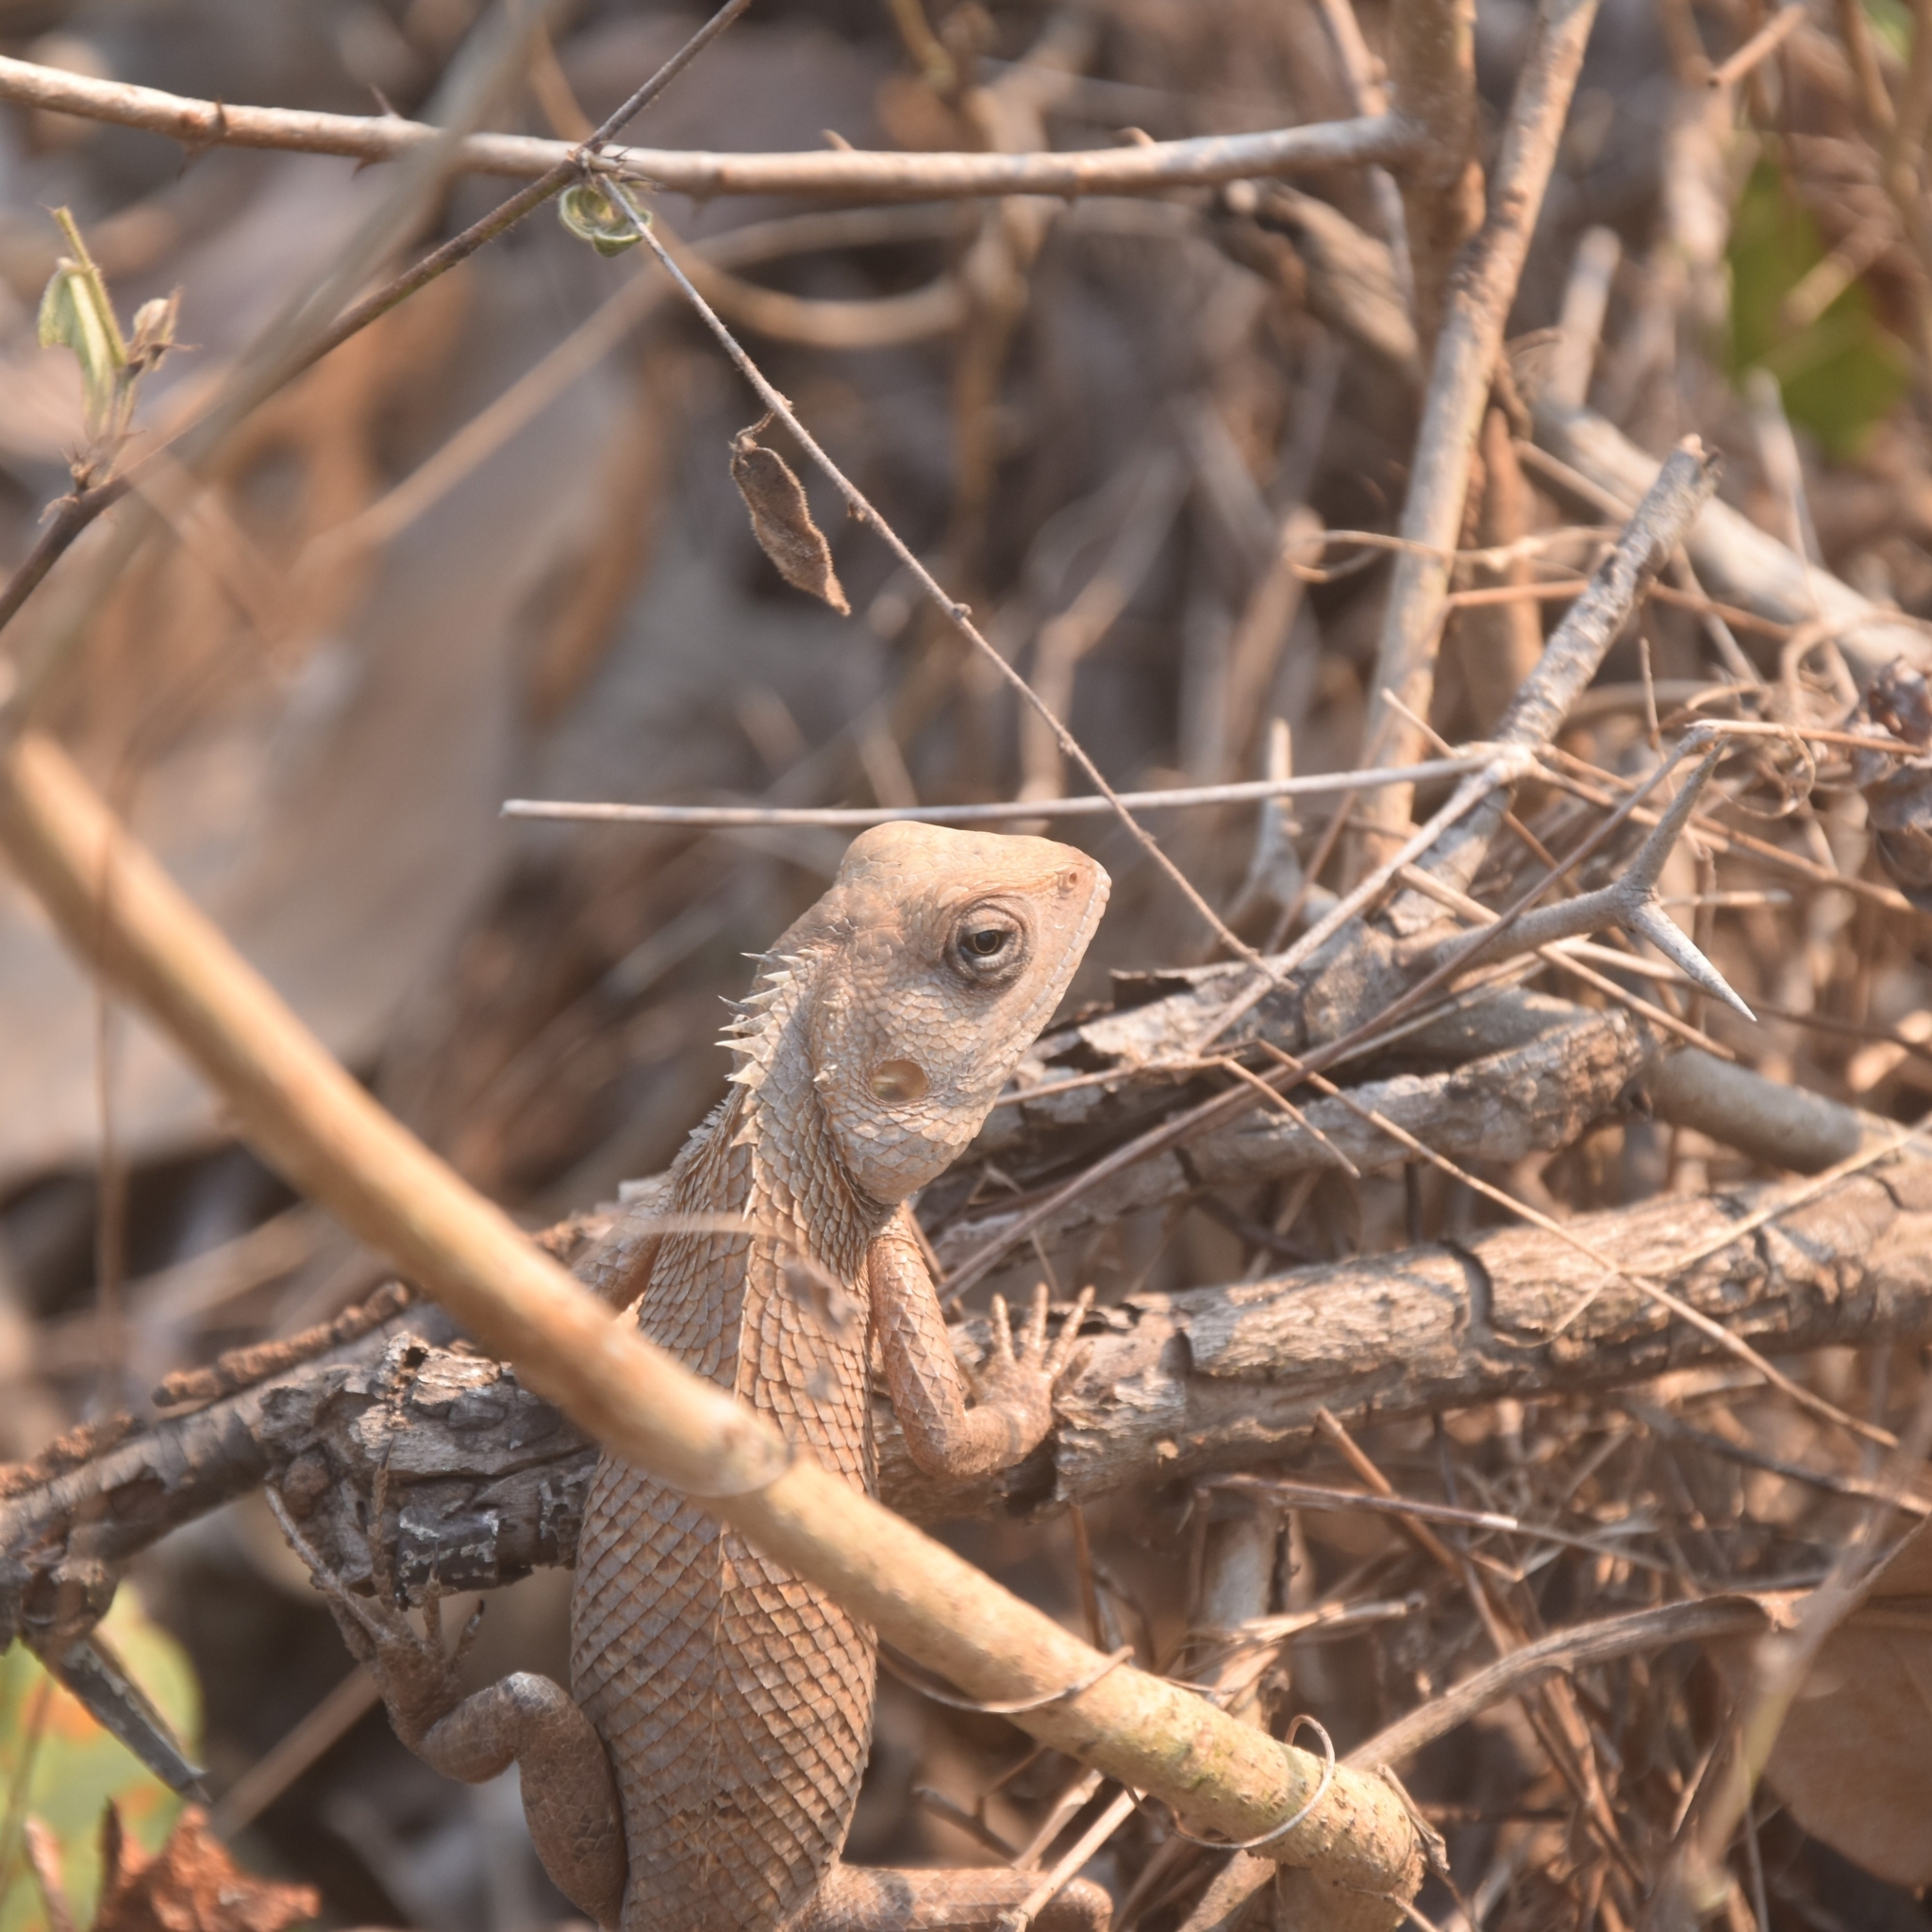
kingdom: Animalia
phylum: Chordata
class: Squamata
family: Agamidae
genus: Calotes
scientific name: Calotes versicolor
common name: Oriental garden lizard
